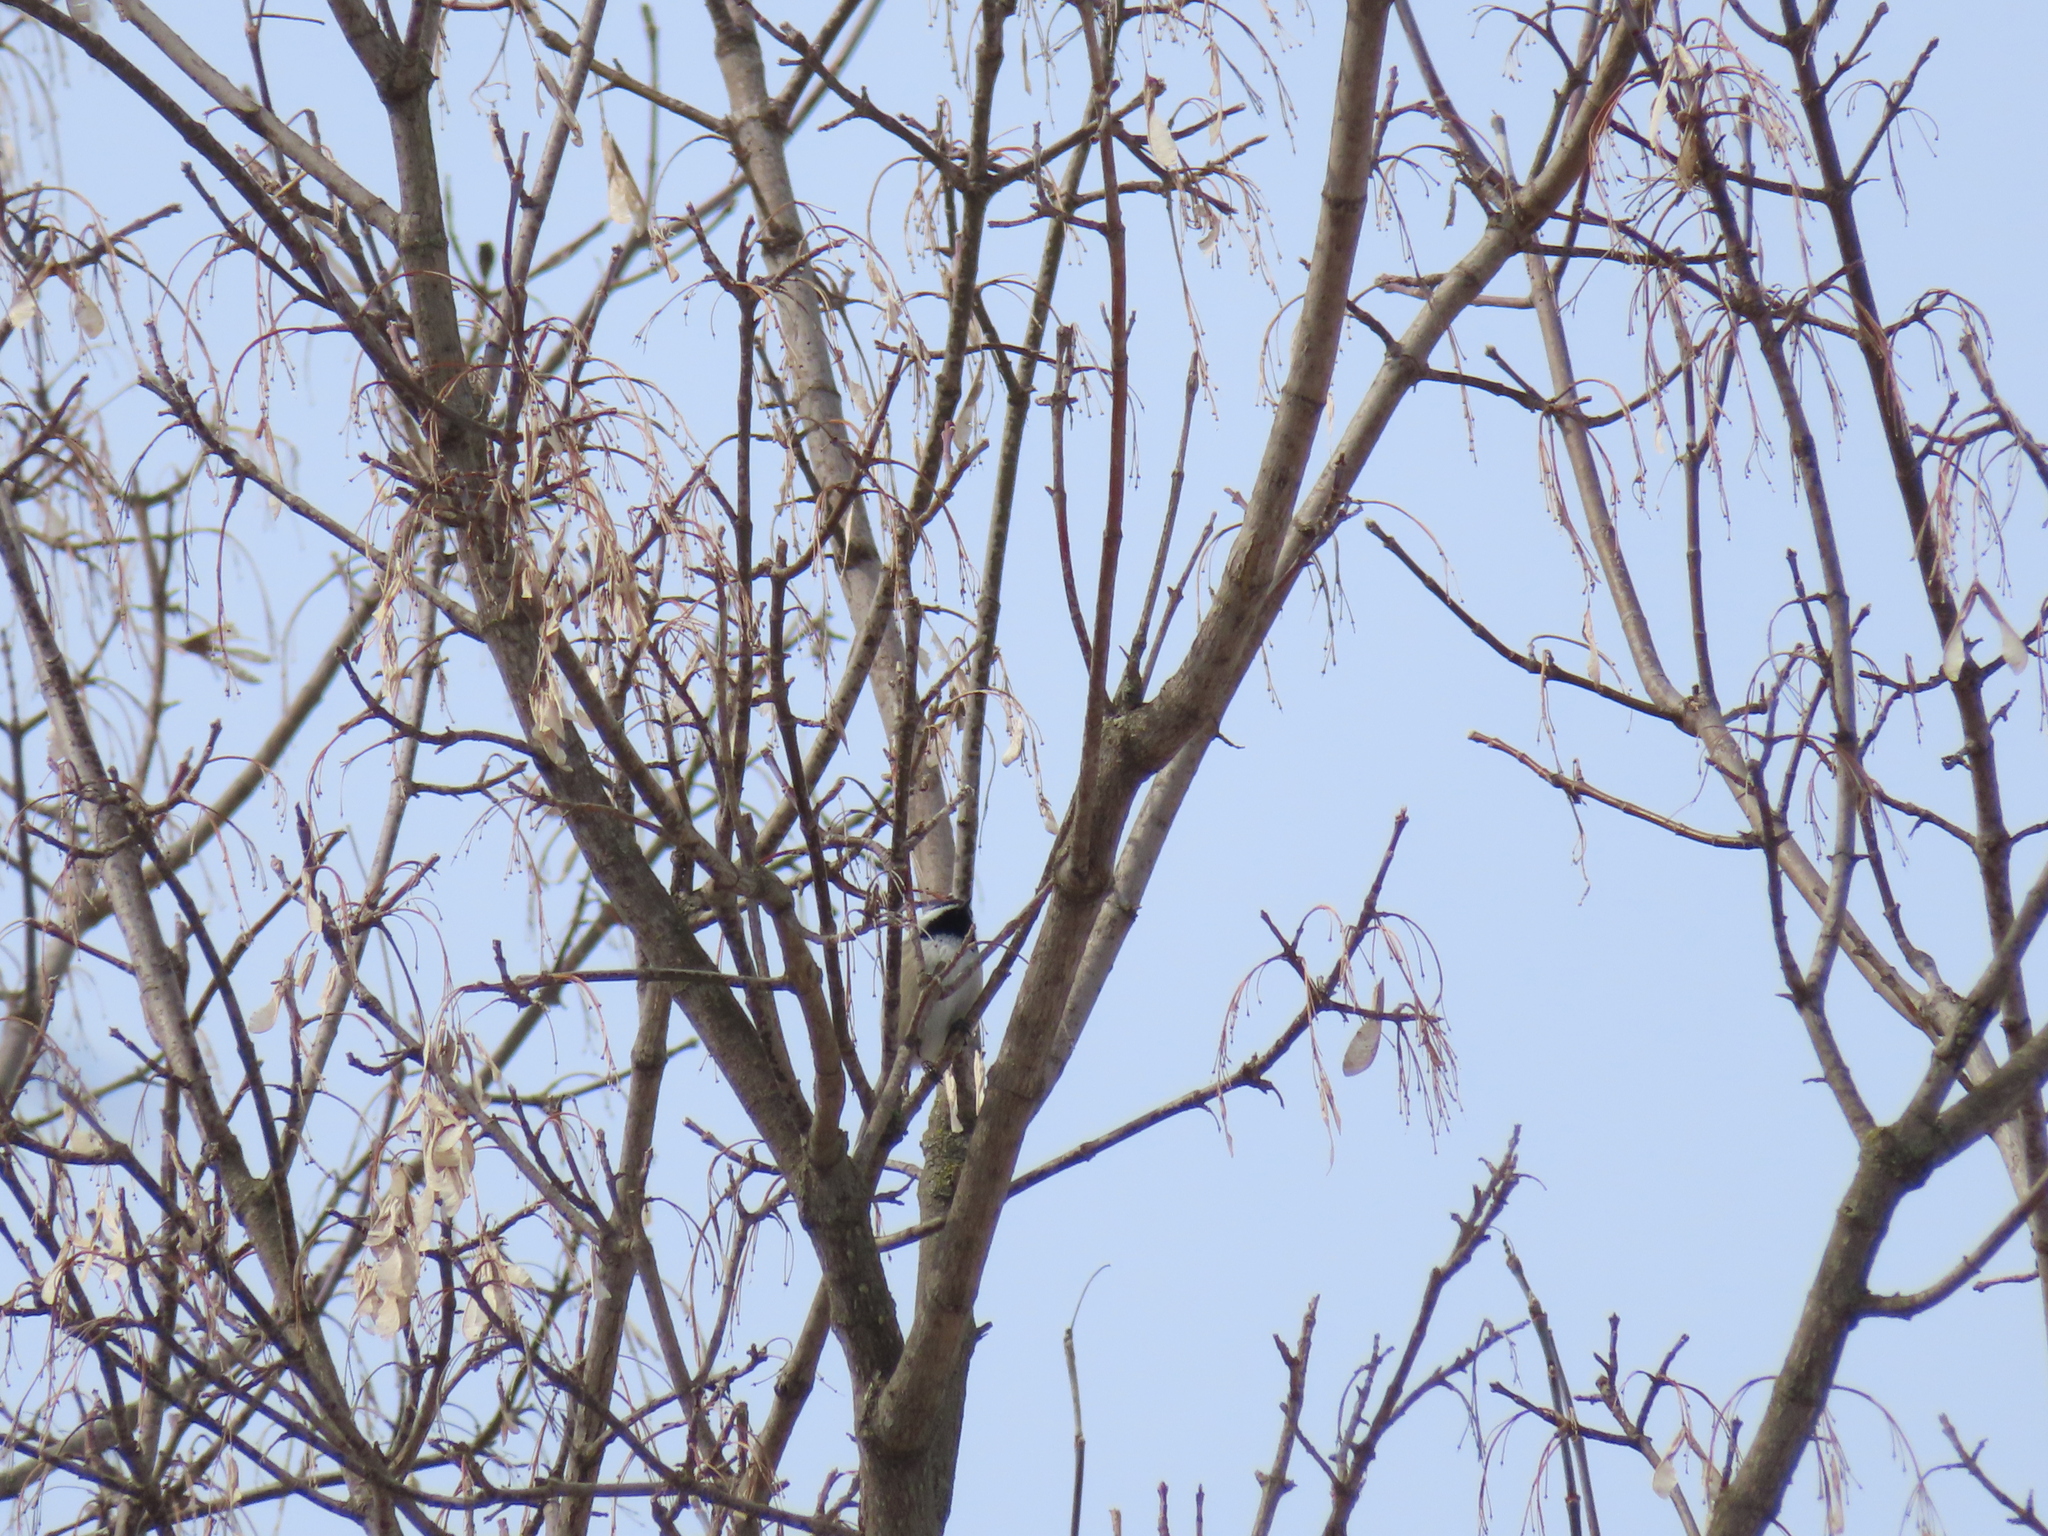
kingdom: Animalia
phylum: Chordata
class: Aves
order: Passeriformes
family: Paridae
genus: Poecile
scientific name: Poecile atricapillus
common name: Black-capped chickadee
